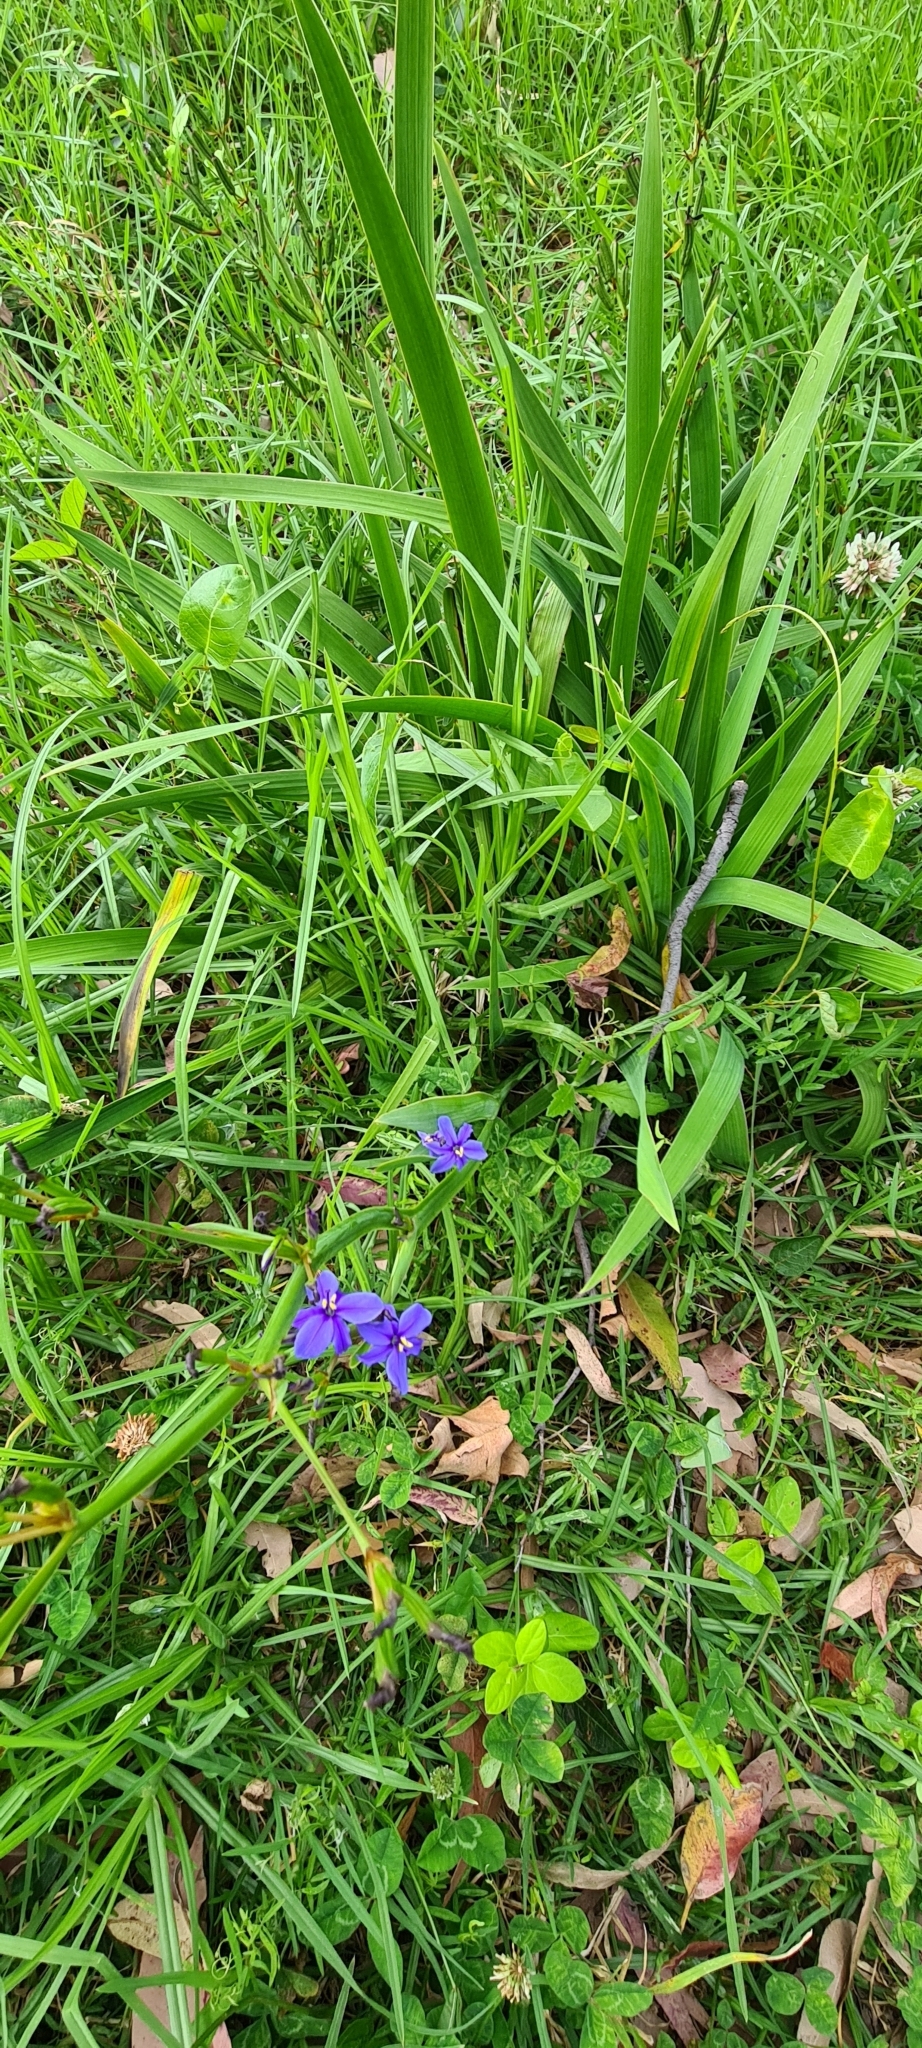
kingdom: Plantae
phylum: Tracheophyta
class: Liliopsida
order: Asparagales
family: Iridaceae
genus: Aristea
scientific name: Aristea ecklonii
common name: Blue corn-lily
